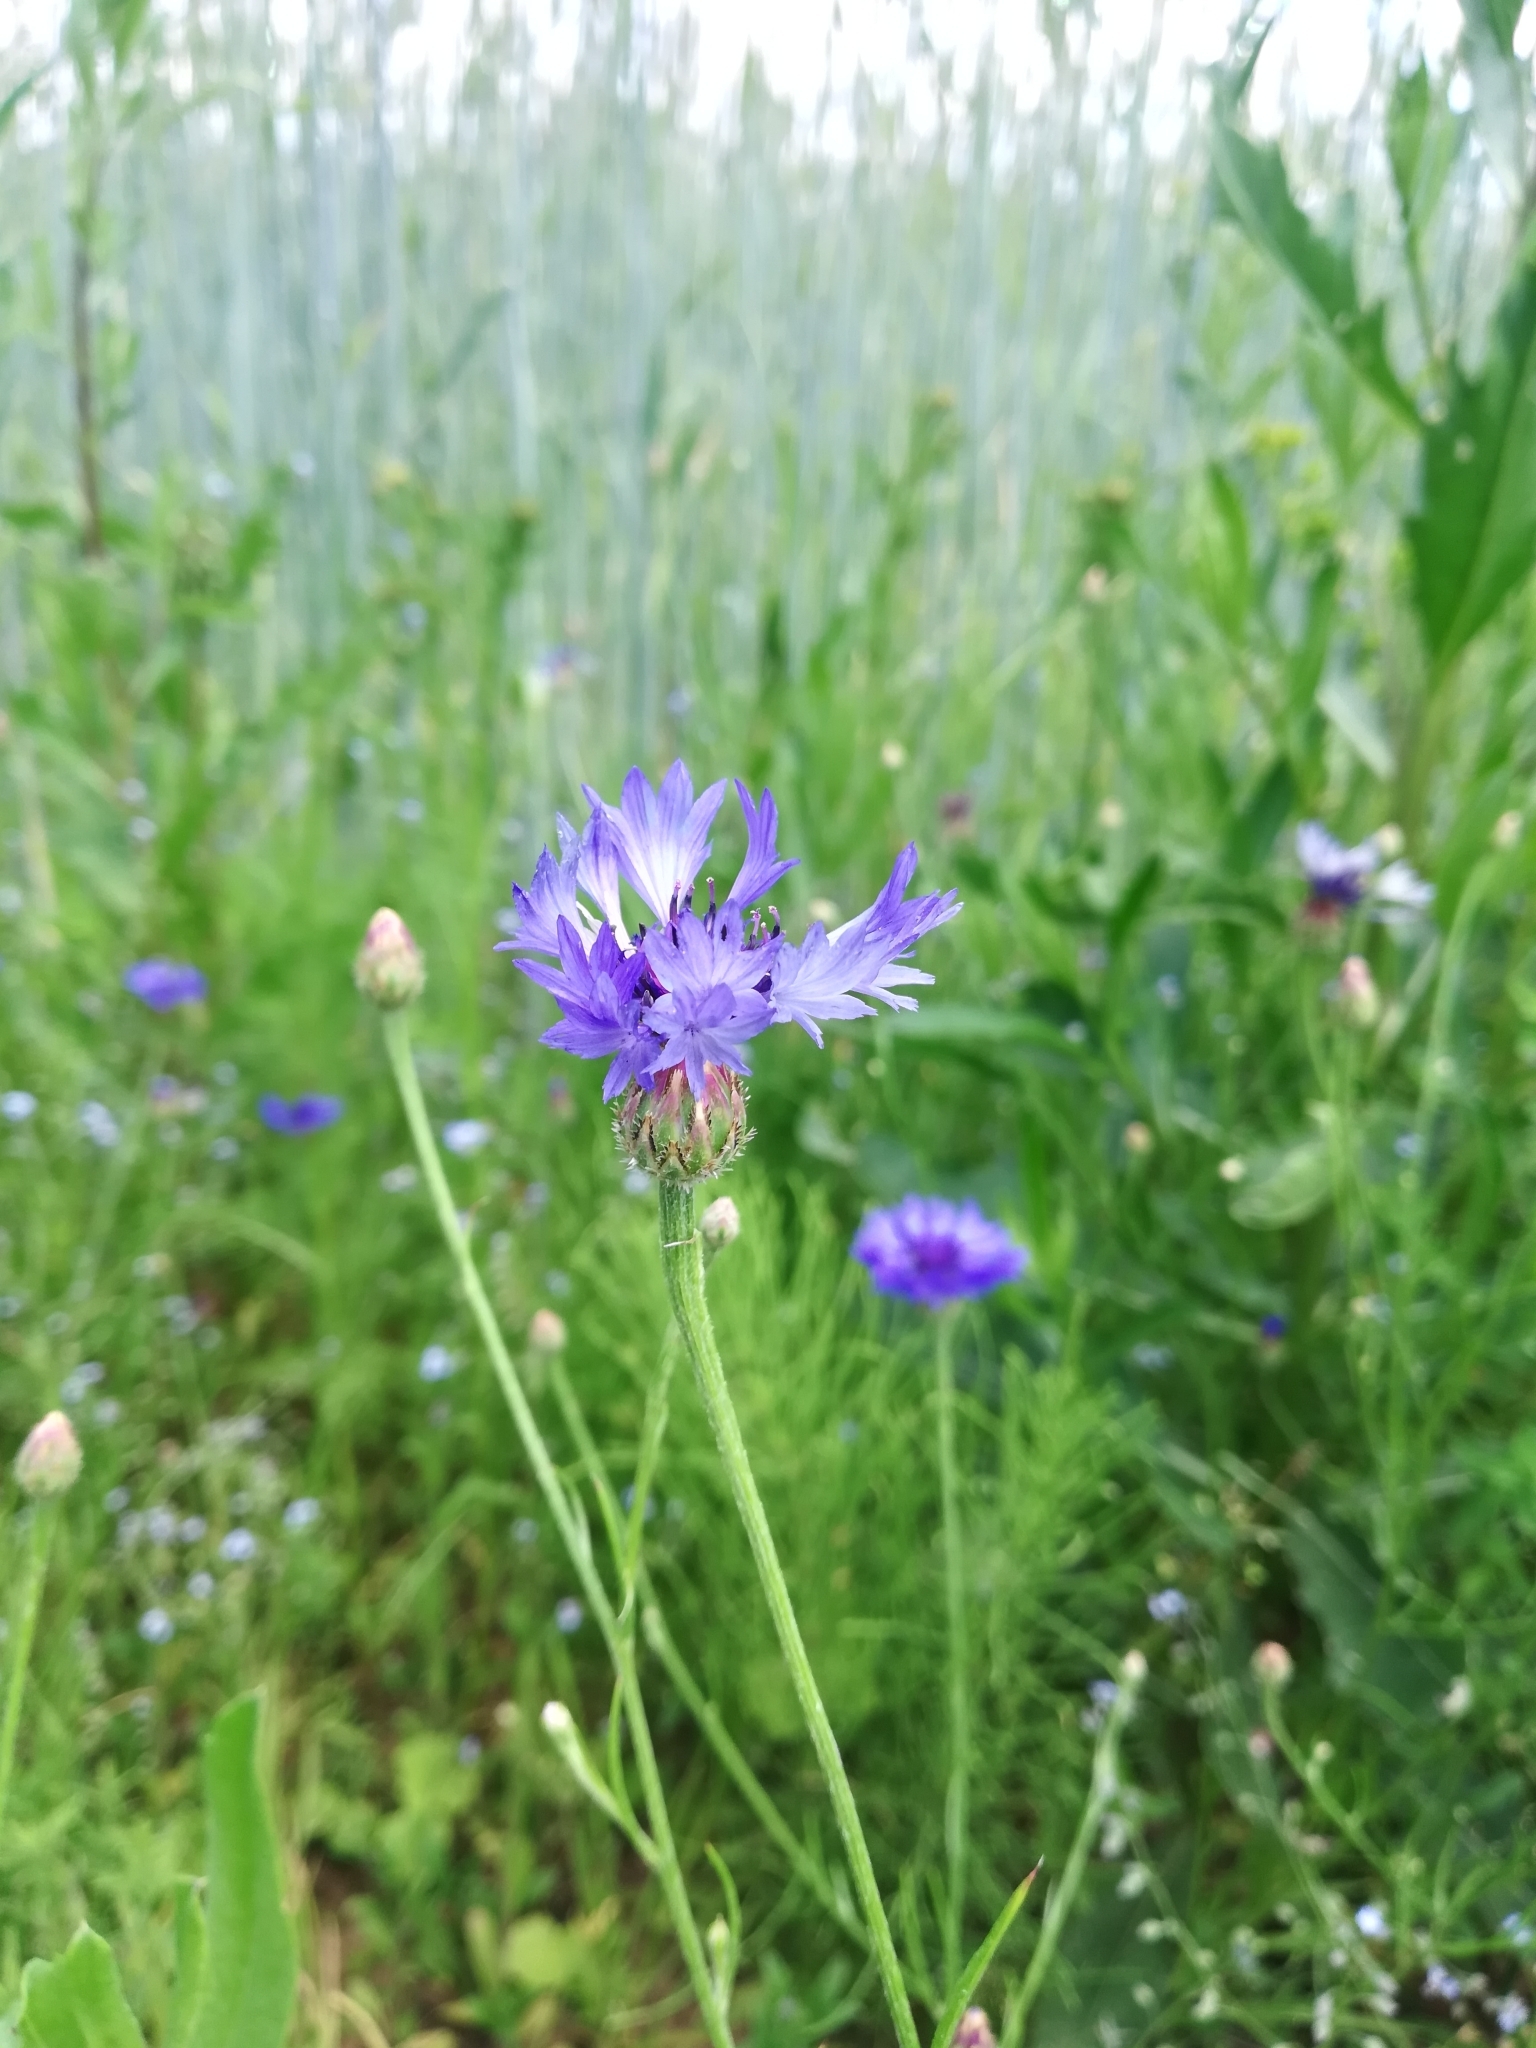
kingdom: Plantae
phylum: Tracheophyta
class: Magnoliopsida
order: Asterales
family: Asteraceae
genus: Centaurea
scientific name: Centaurea cyanus
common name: Cornflower
